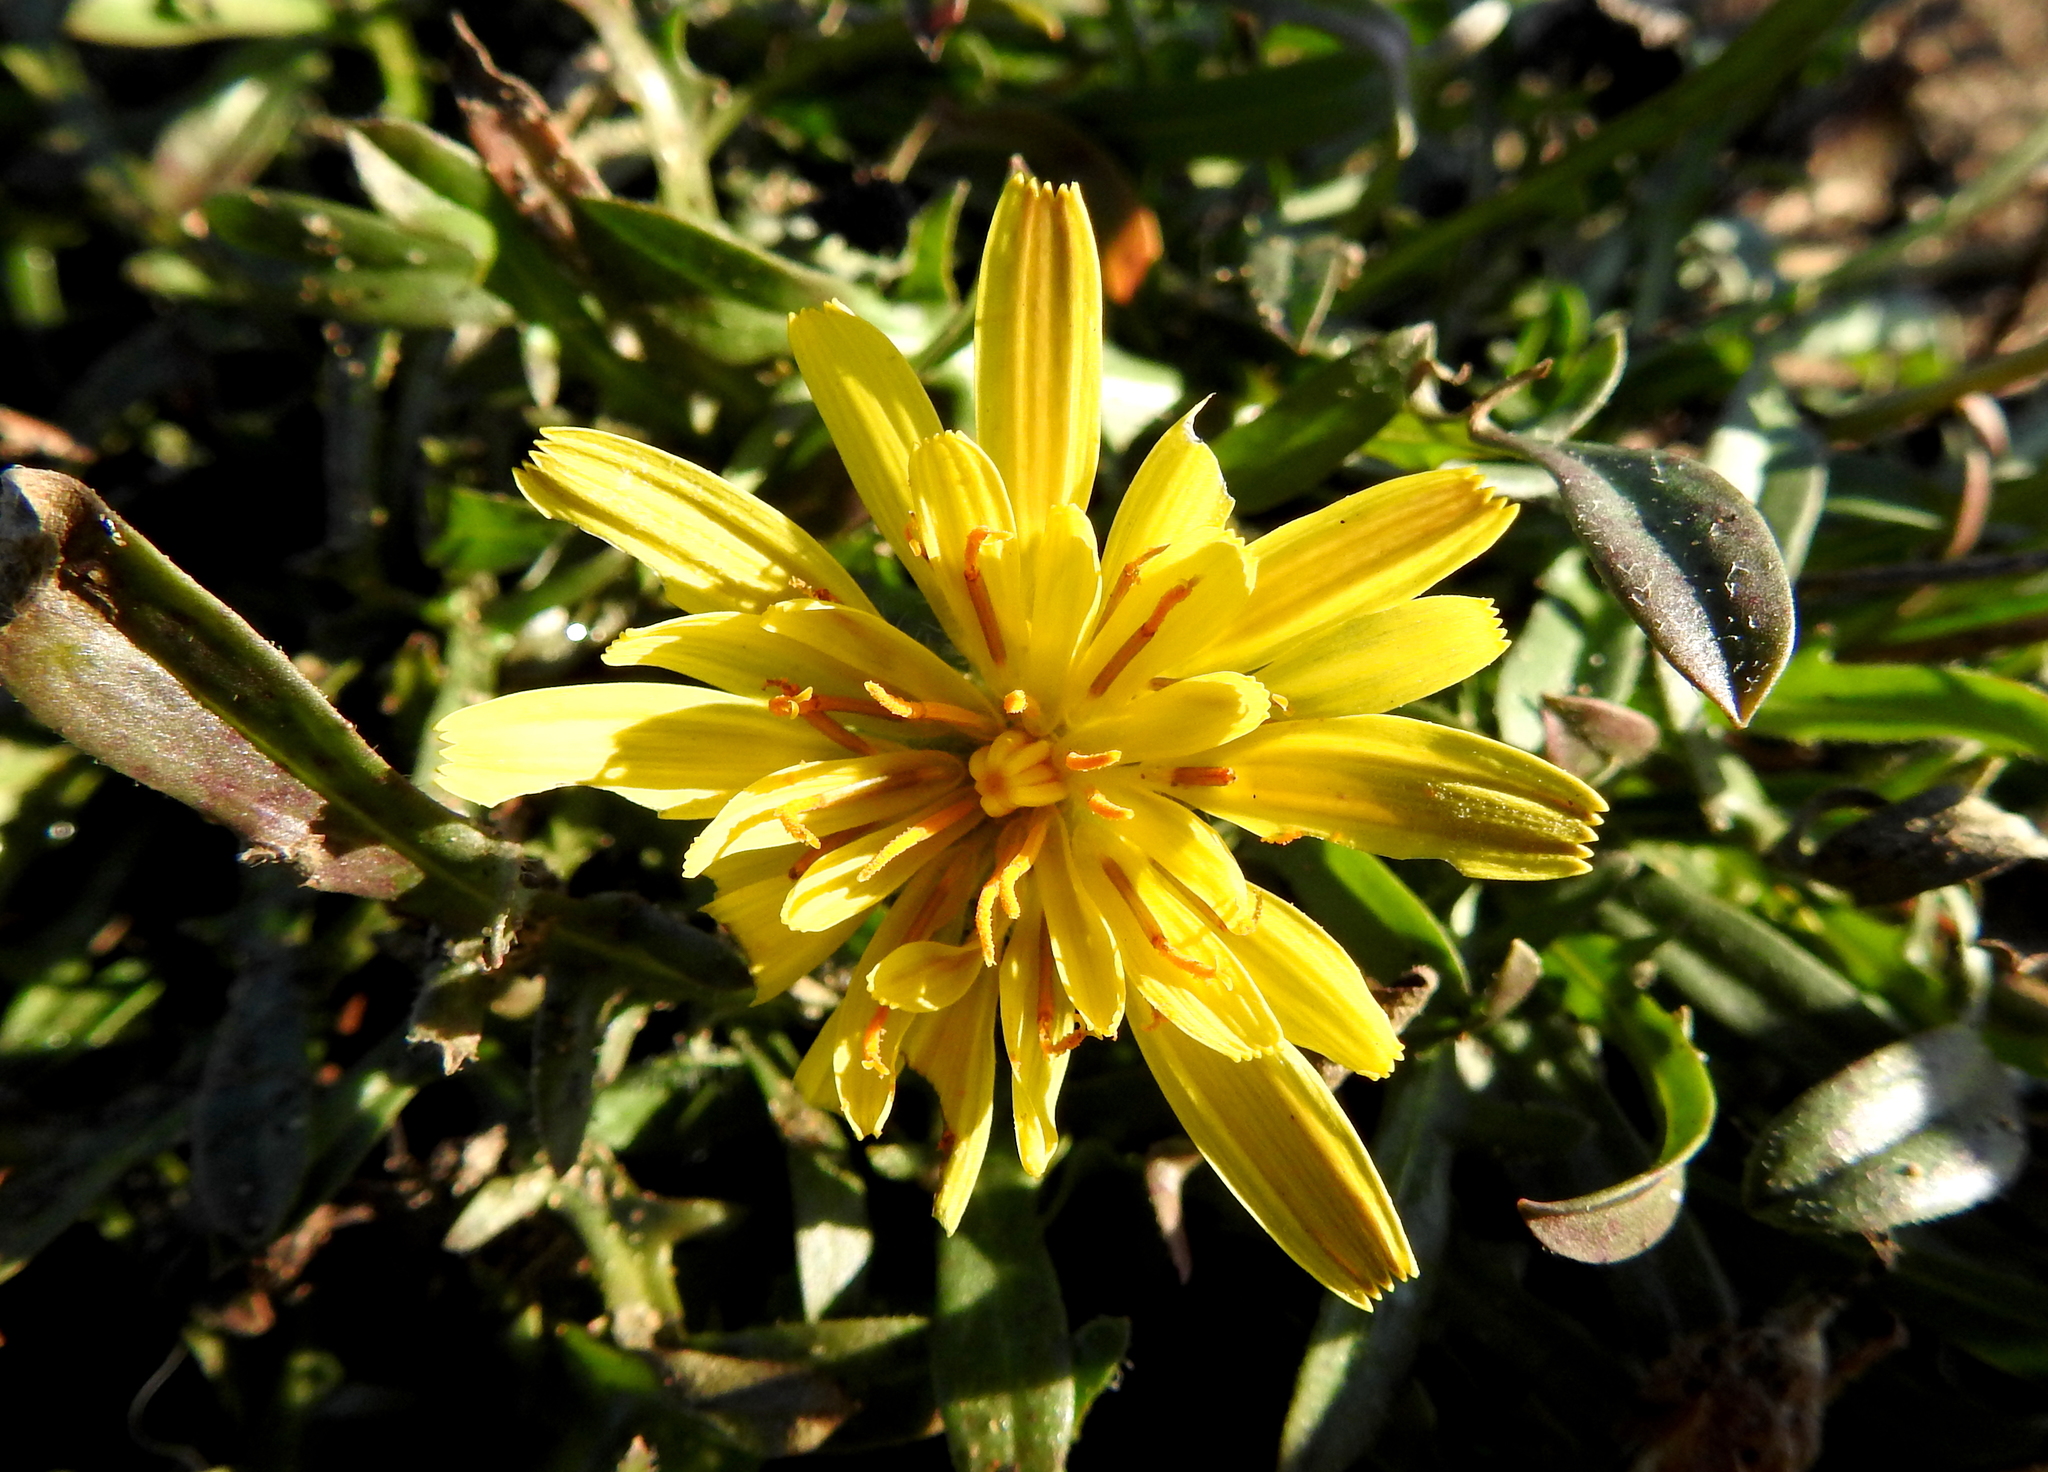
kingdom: Plantae
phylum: Tracheophyta
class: Magnoliopsida
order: Asterales
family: Asteraceae
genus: Agoseris
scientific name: Agoseris apargioides
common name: Point reyes agoseris
